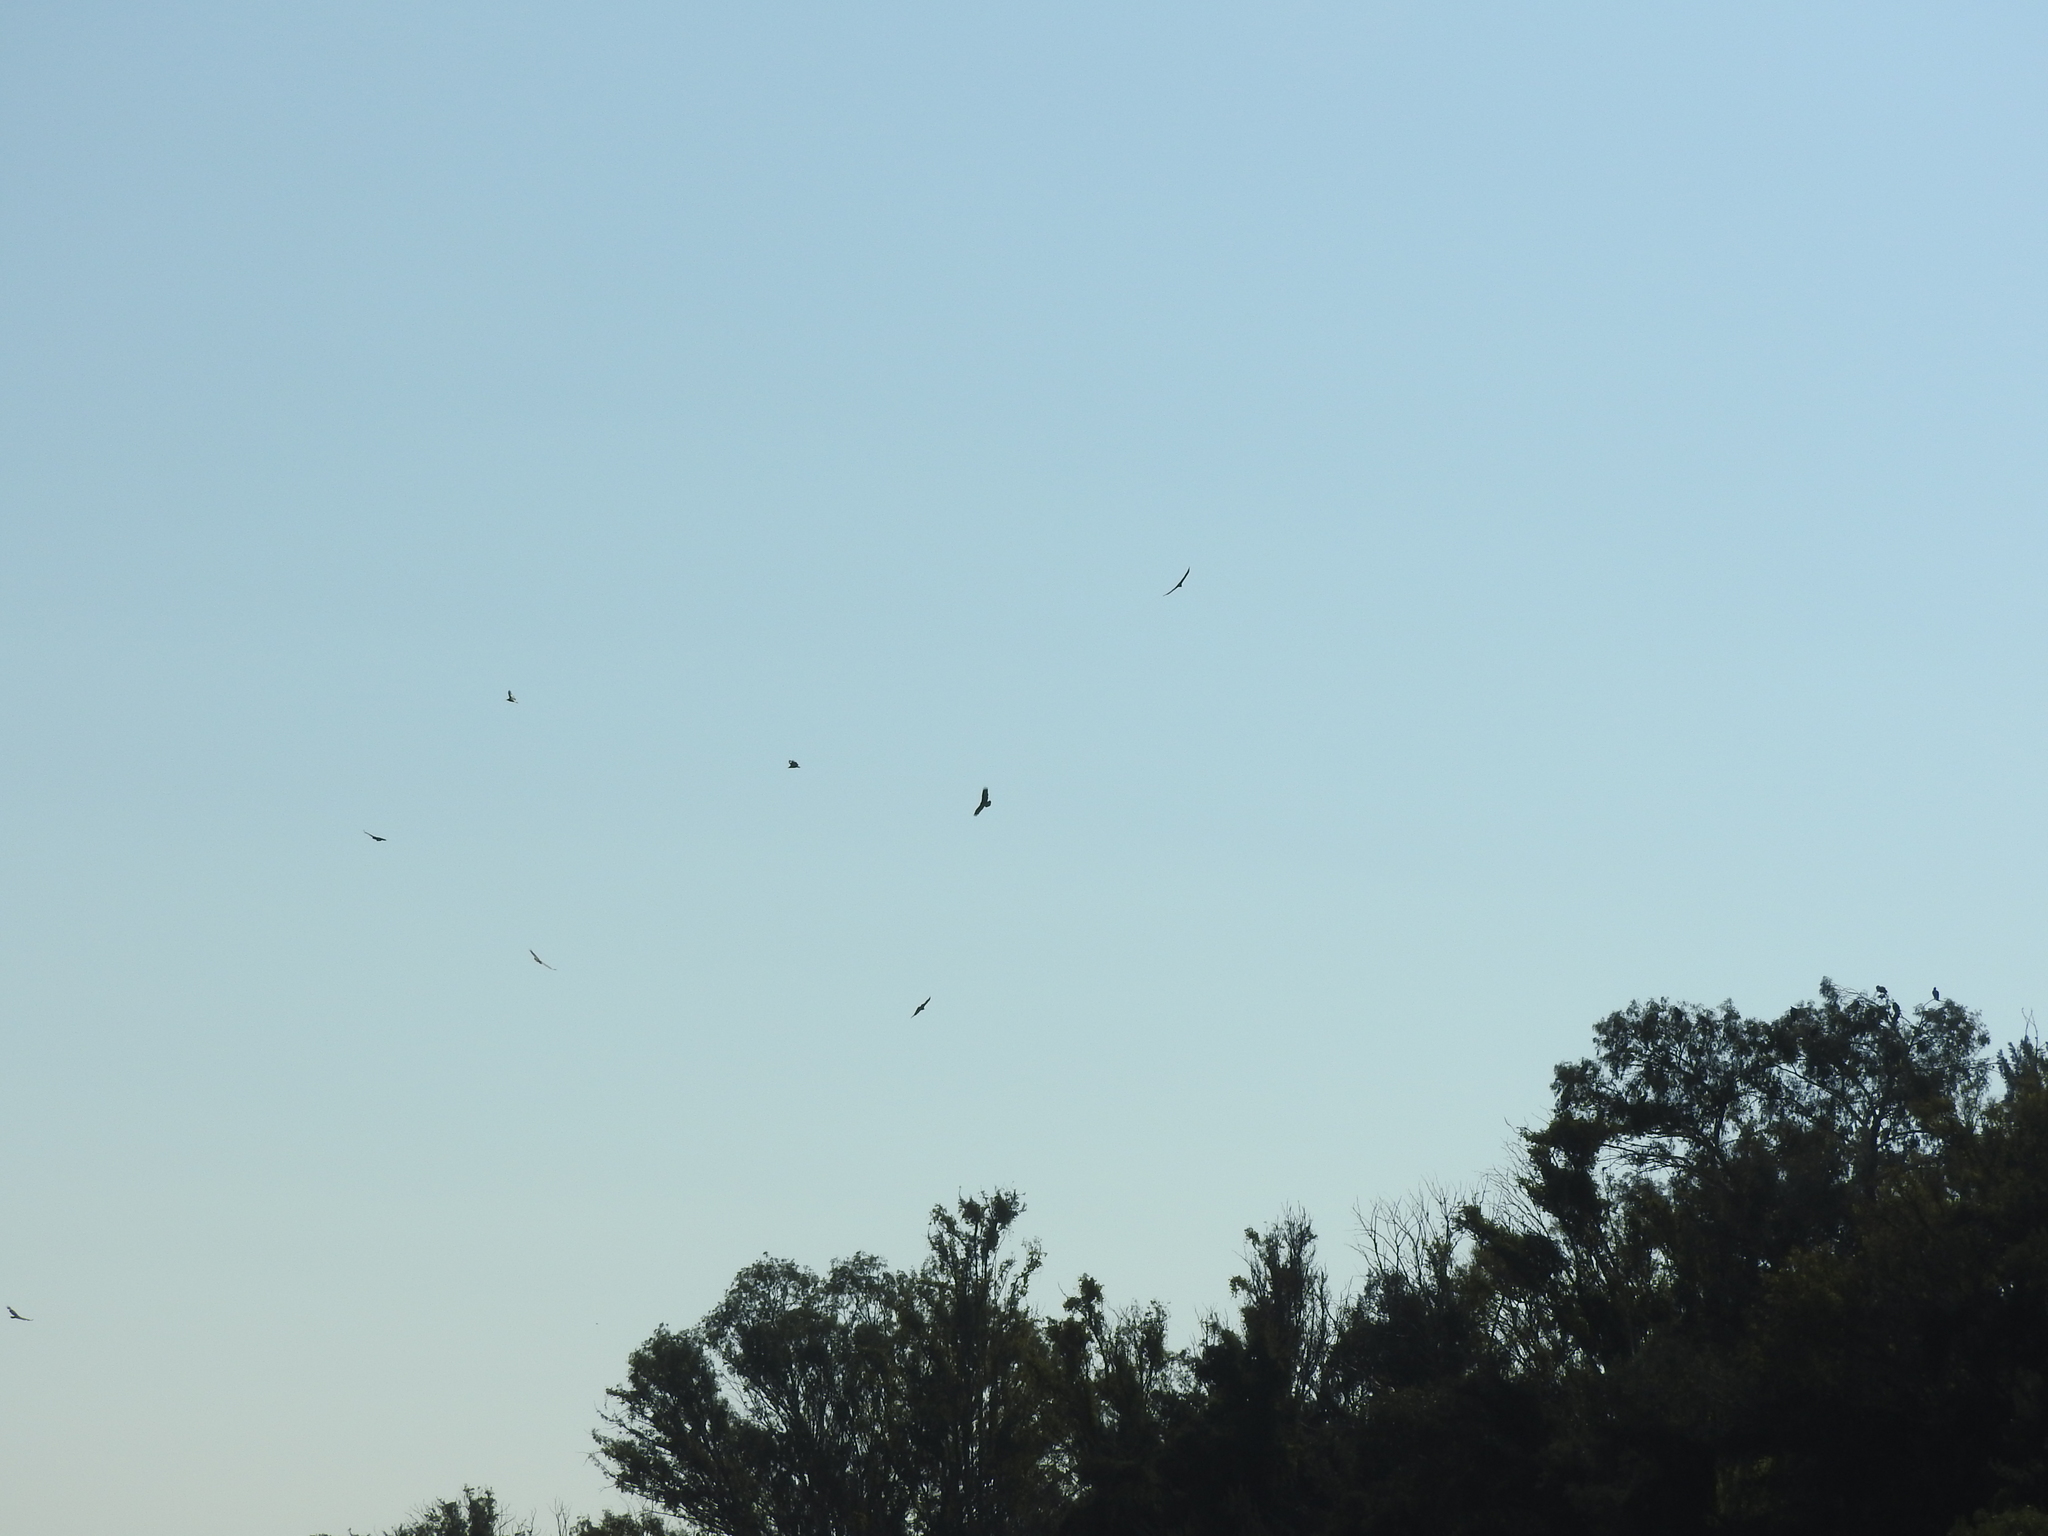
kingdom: Animalia
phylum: Chordata
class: Aves
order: Accipitriformes
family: Cathartidae
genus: Cathartes
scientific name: Cathartes aura
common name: Turkey vulture
